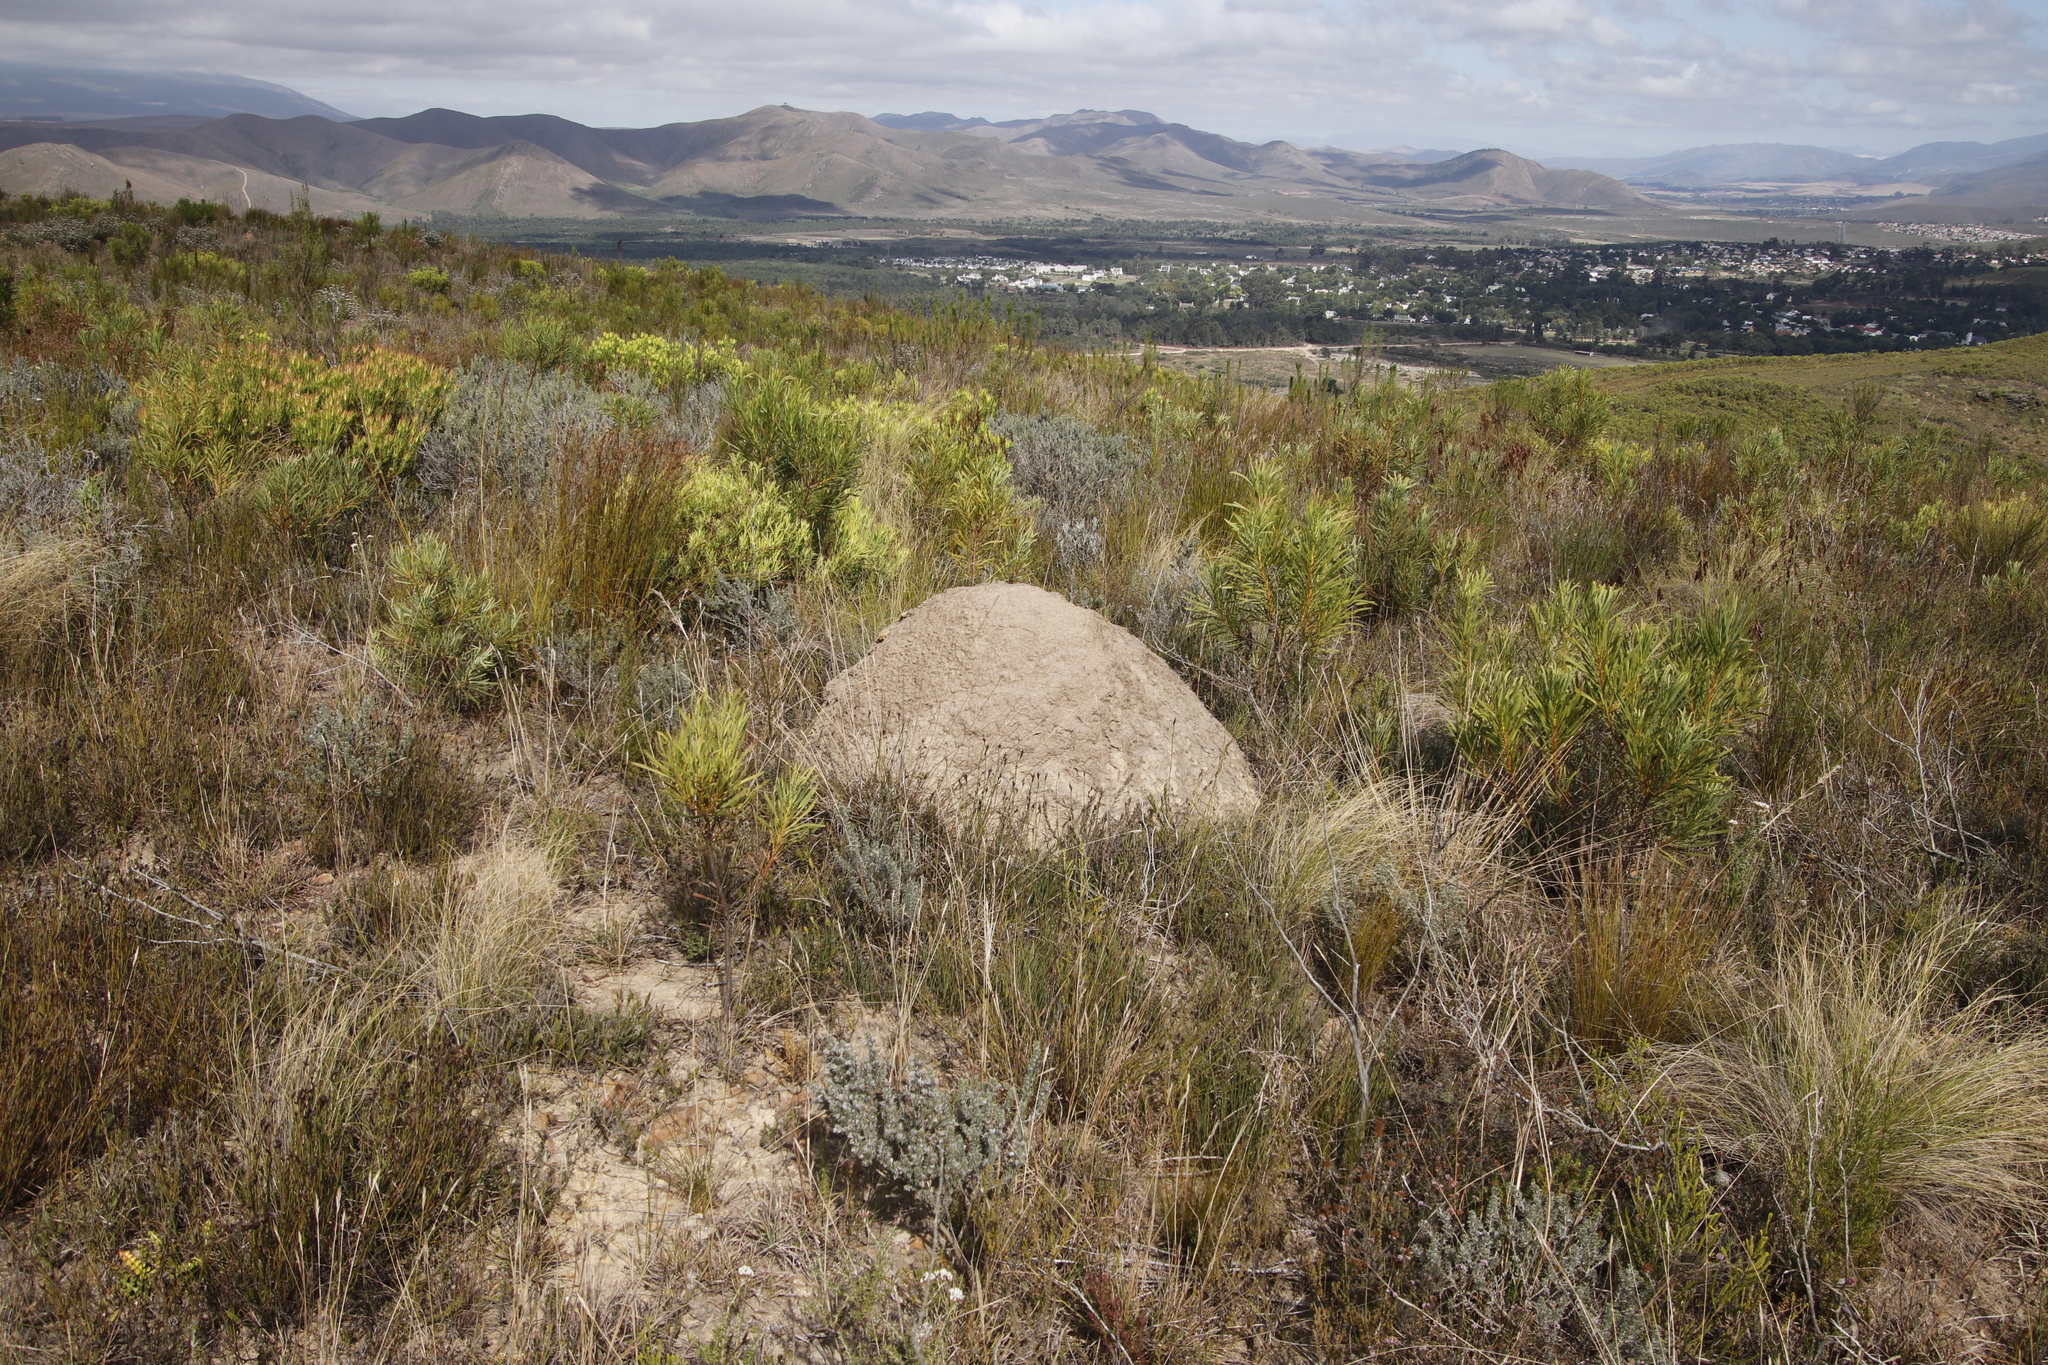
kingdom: Plantae
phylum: Tracheophyta
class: Magnoliopsida
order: Proteales
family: Proteaceae
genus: Leucadendron
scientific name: Leucadendron salignum
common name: Common sunshine conebush
